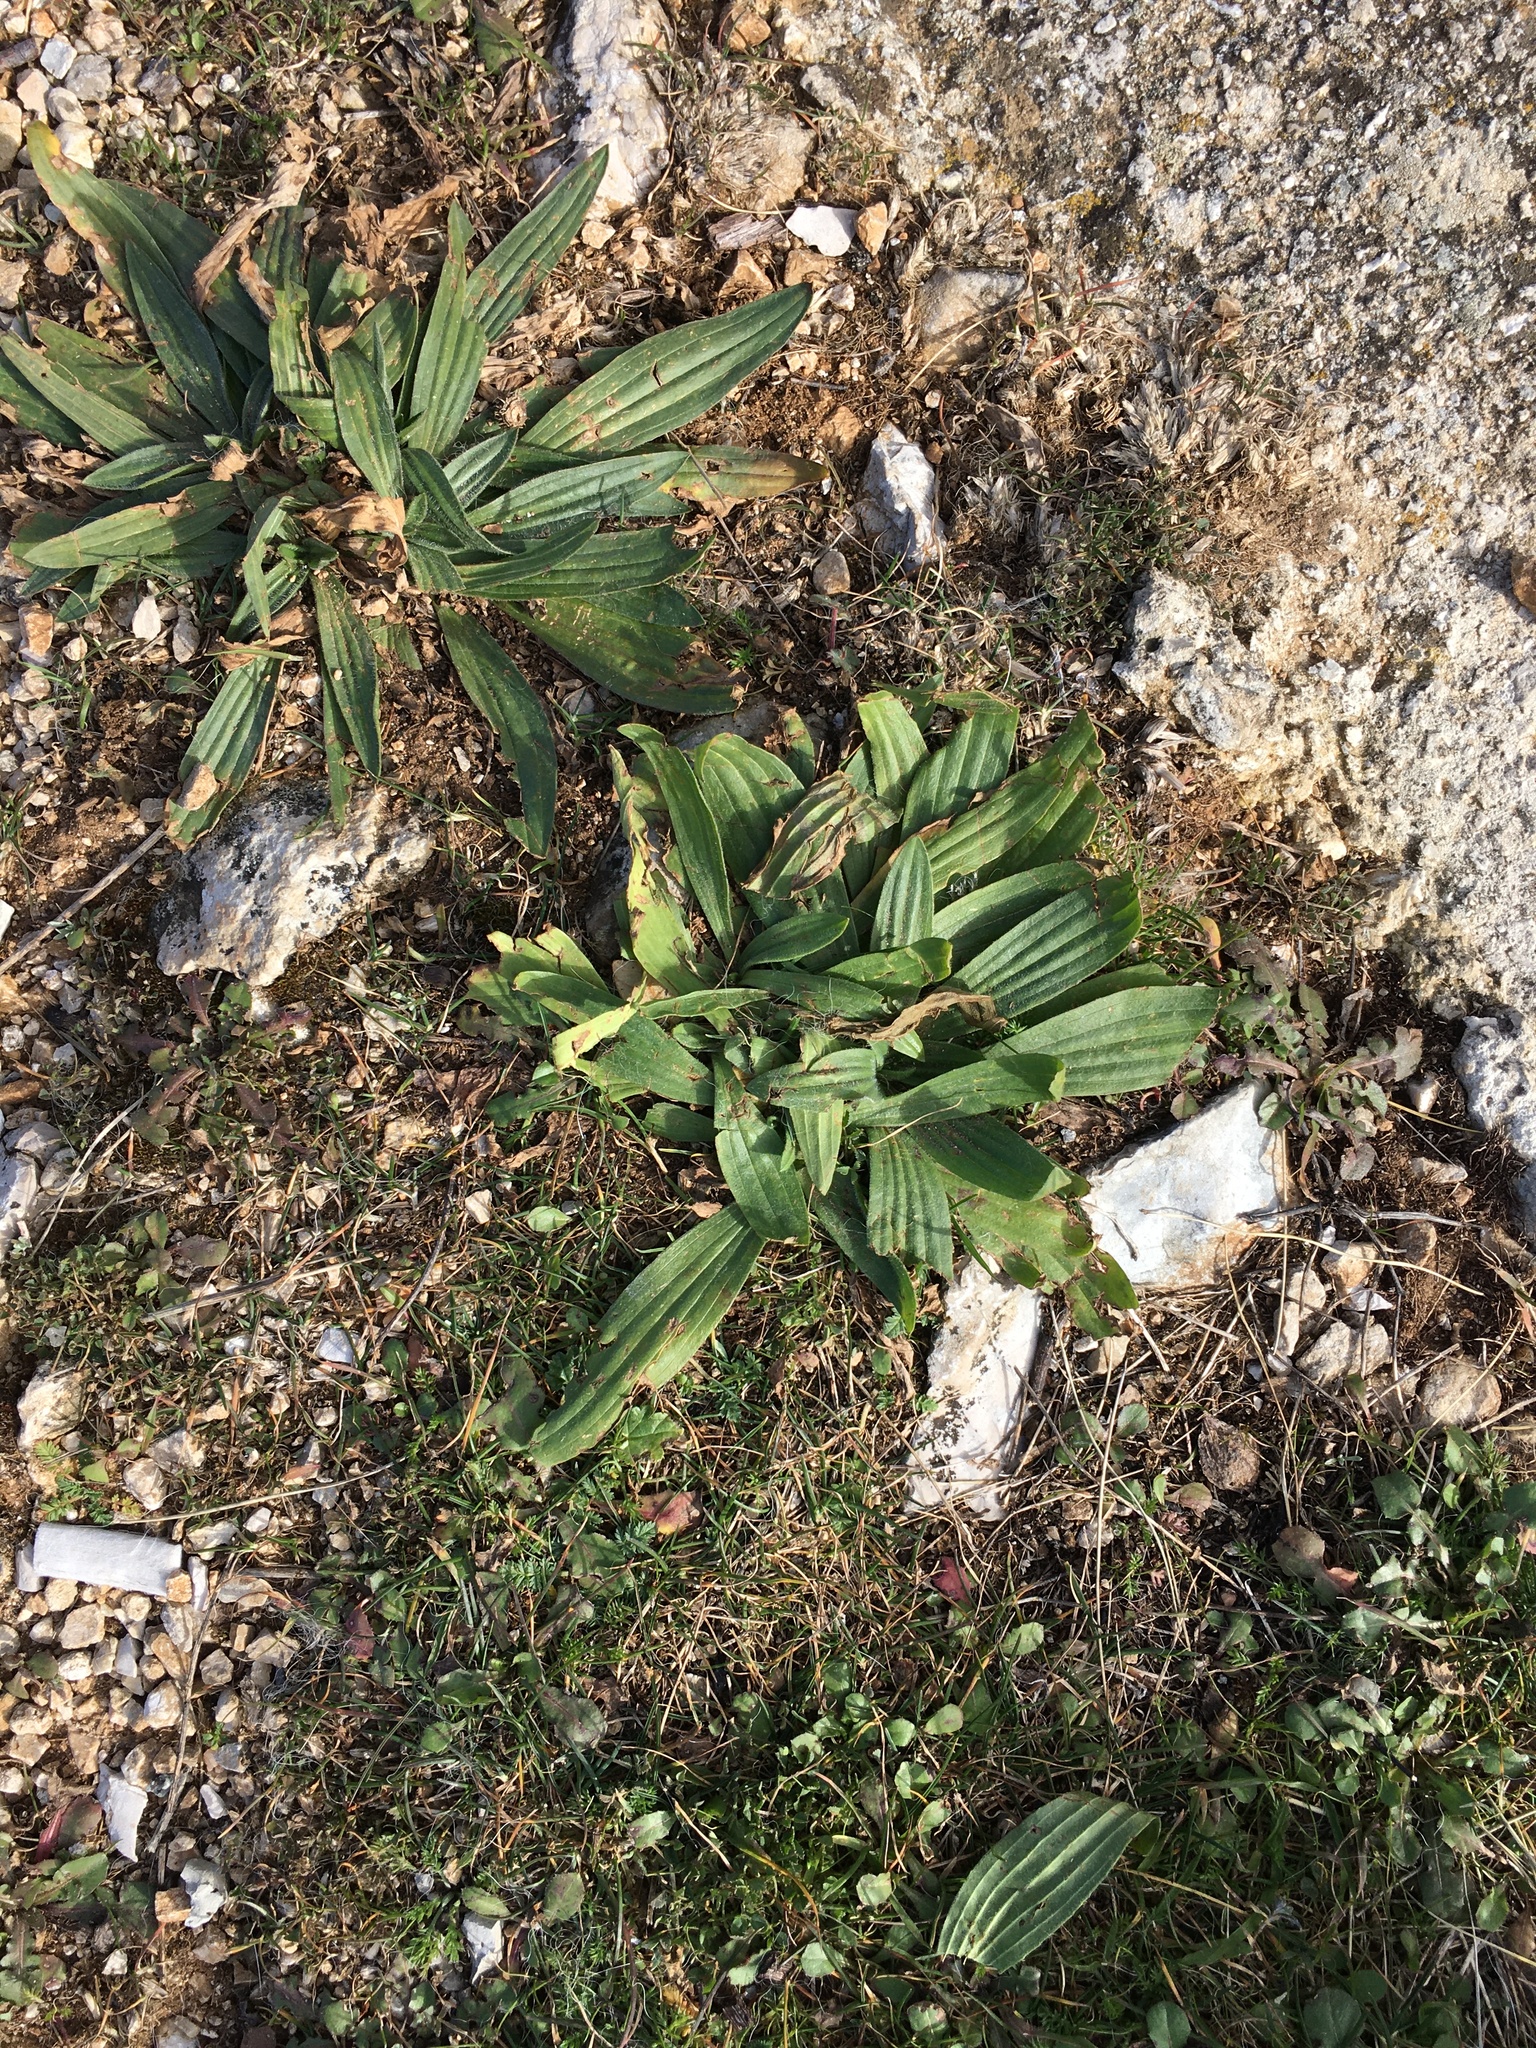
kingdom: Plantae
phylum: Tracheophyta
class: Magnoliopsida
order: Lamiales
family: Plantaginaceae
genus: Plantago
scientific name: Plantago lanceolata
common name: Ribwort plantain
